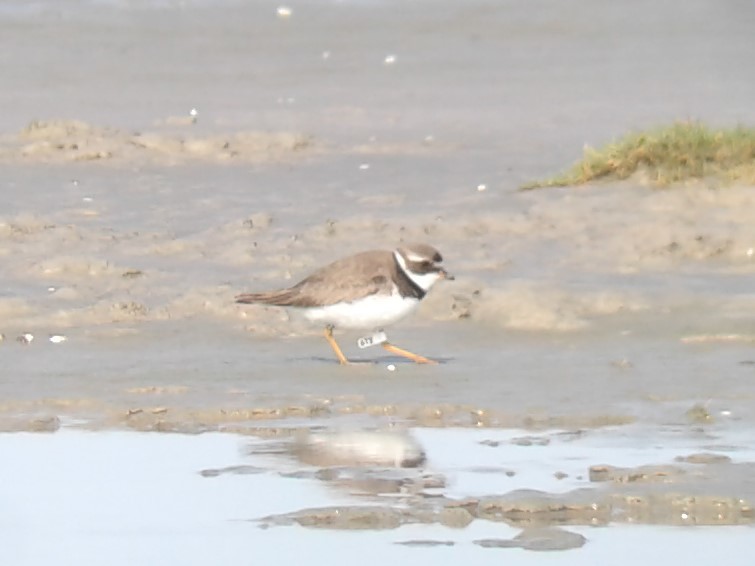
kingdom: Animalia
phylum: Chordata
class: Aves
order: Charadriiformes
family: Charadriidae
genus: Charadrius
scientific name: Charadrius semipalmatus
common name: Semipalmated plover
